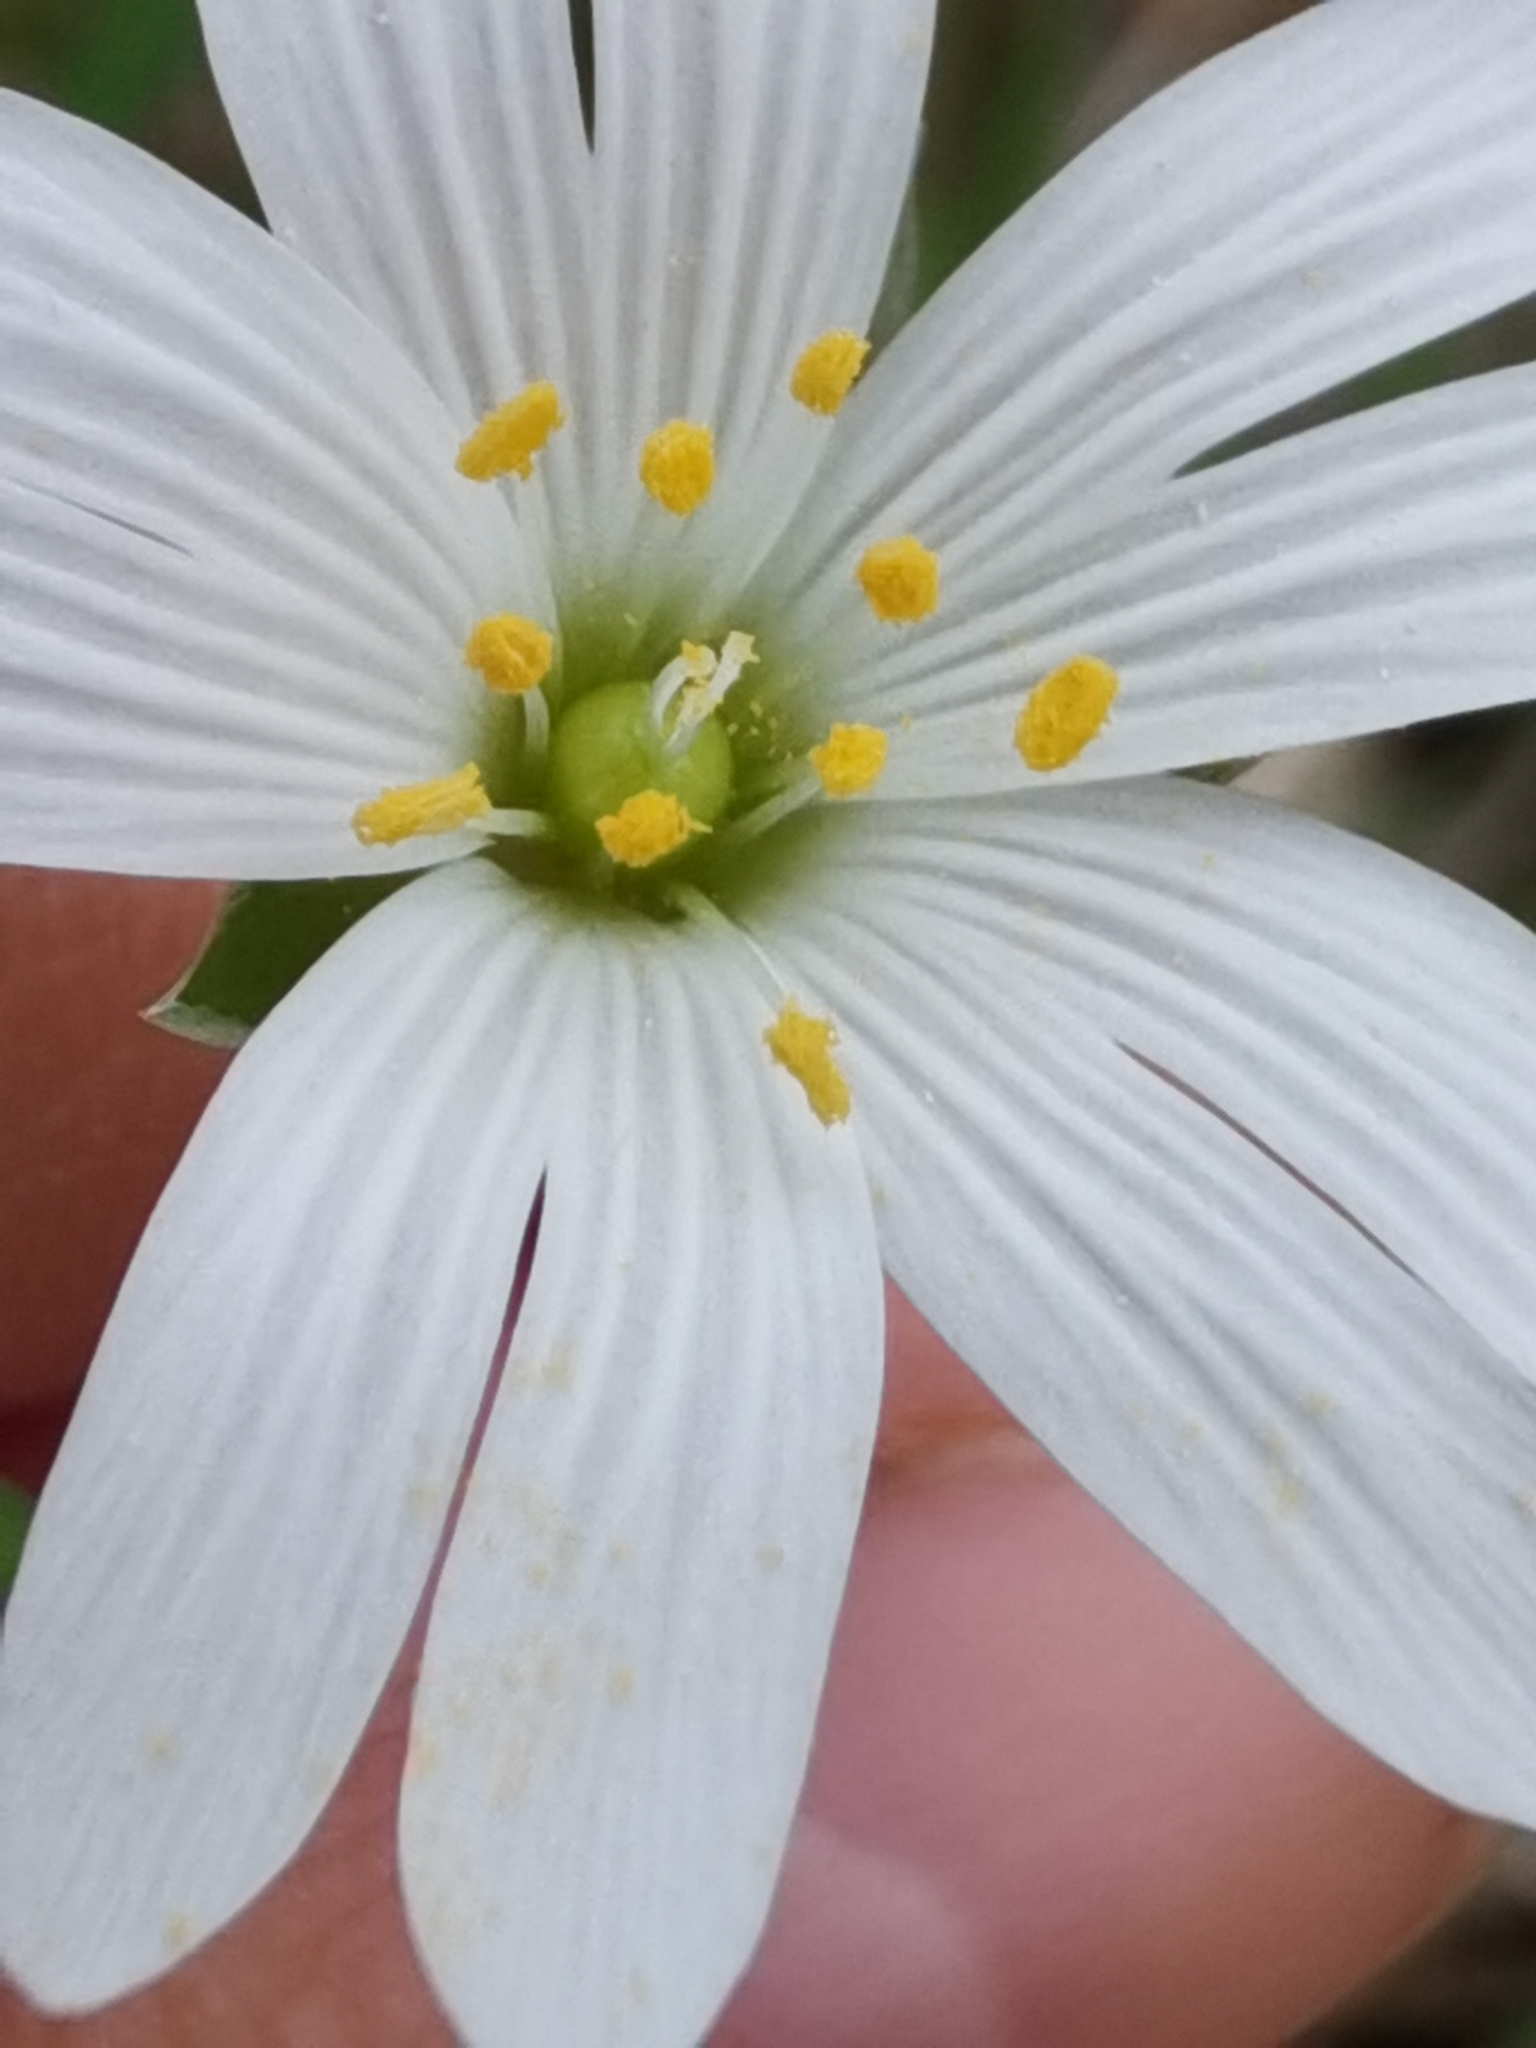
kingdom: Plantae
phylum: Tracheophyta
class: Magnoliopsida
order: Caryophyllales
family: Caryophyllaceae
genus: Rabelera
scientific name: Rabelera holostea
